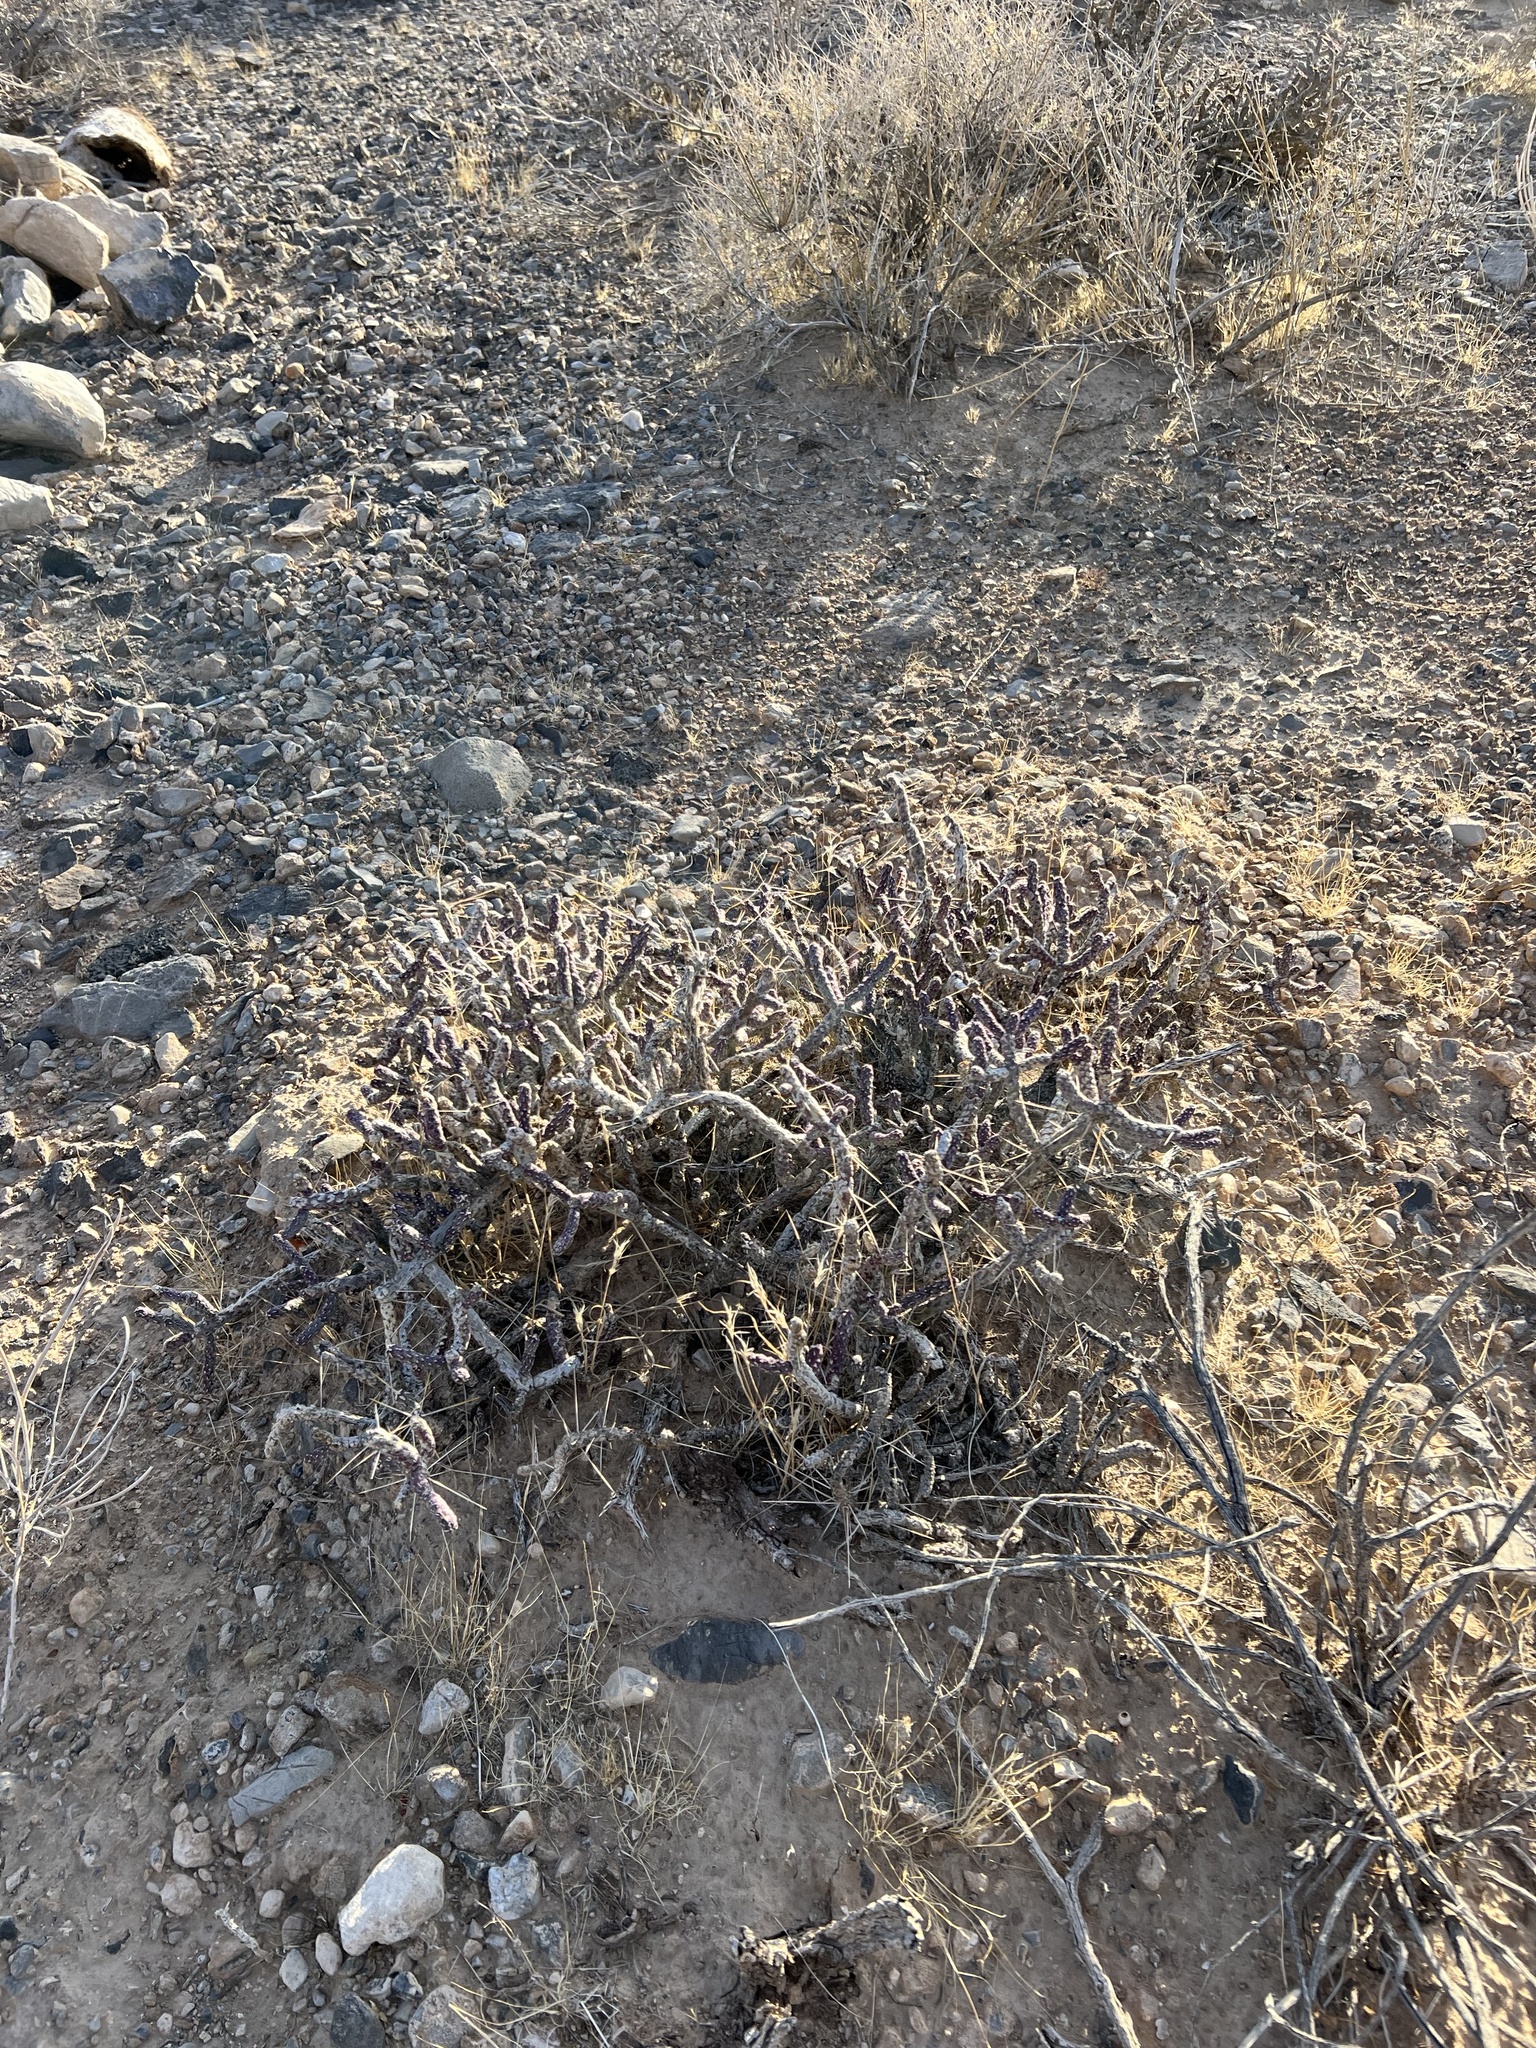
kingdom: Plantae
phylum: Tracheophyta
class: Magnoliopsida
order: Caryophyllales
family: Cactaceae
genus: Cylindropuntia
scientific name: Cylindropuntia ramosissima
